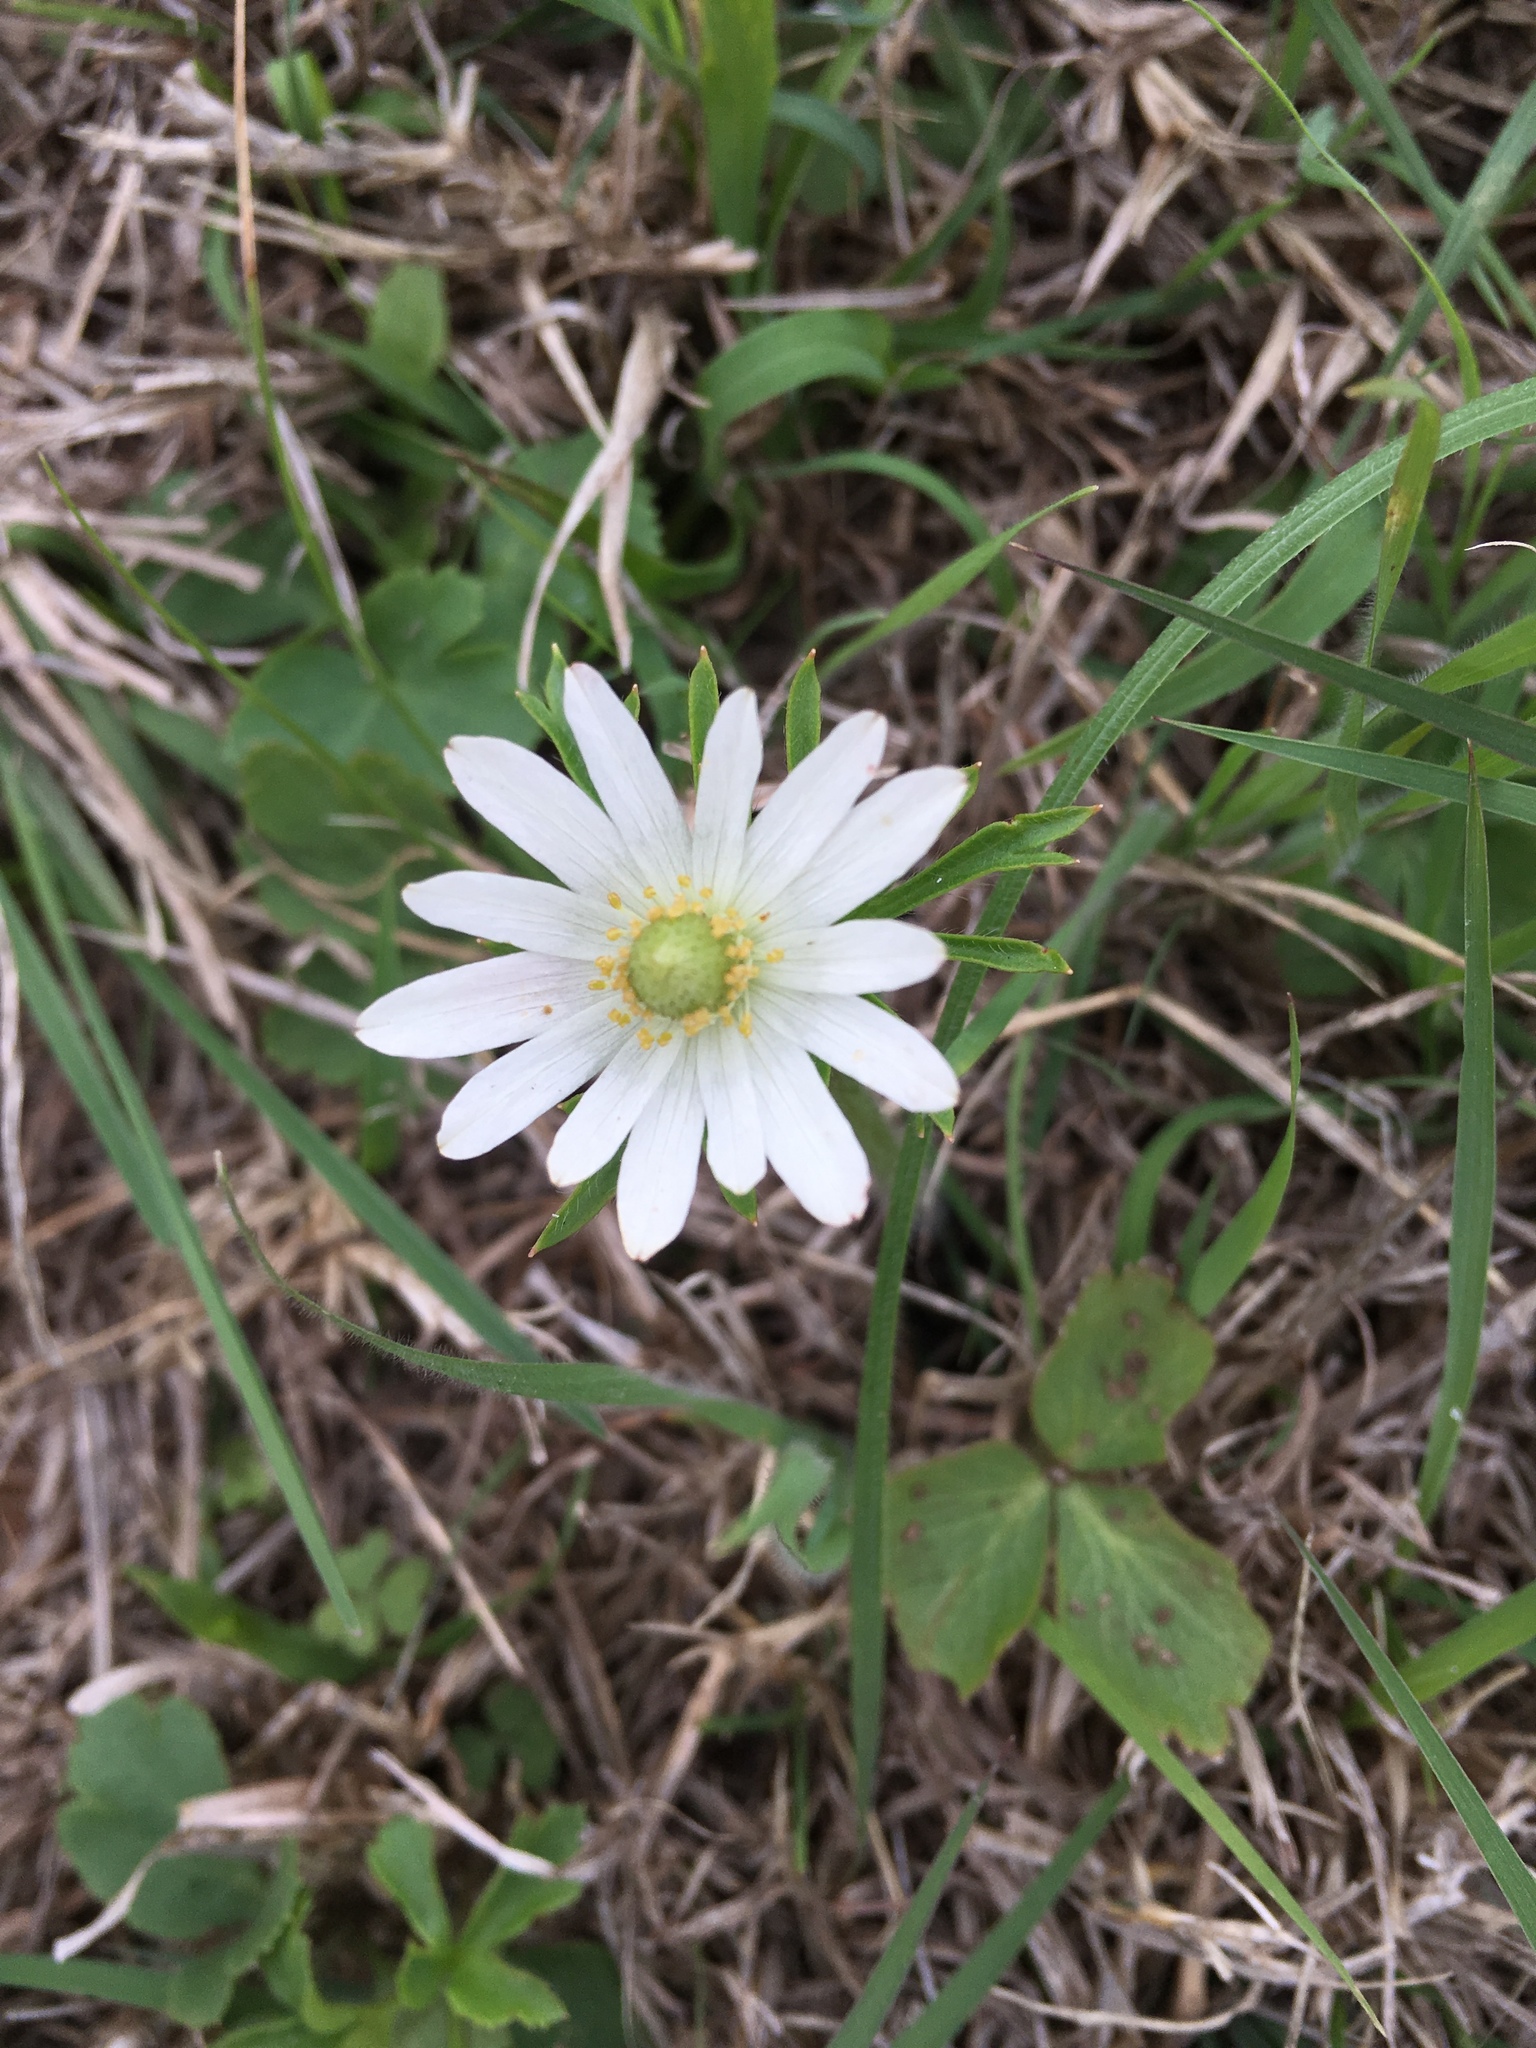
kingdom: Plantae
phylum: Tracheophyta
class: Magnoliopsida
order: Ranunculales
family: Ranunculaceae
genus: Anemone
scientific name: Anemone berlandieri
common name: Ten-petal anemone
